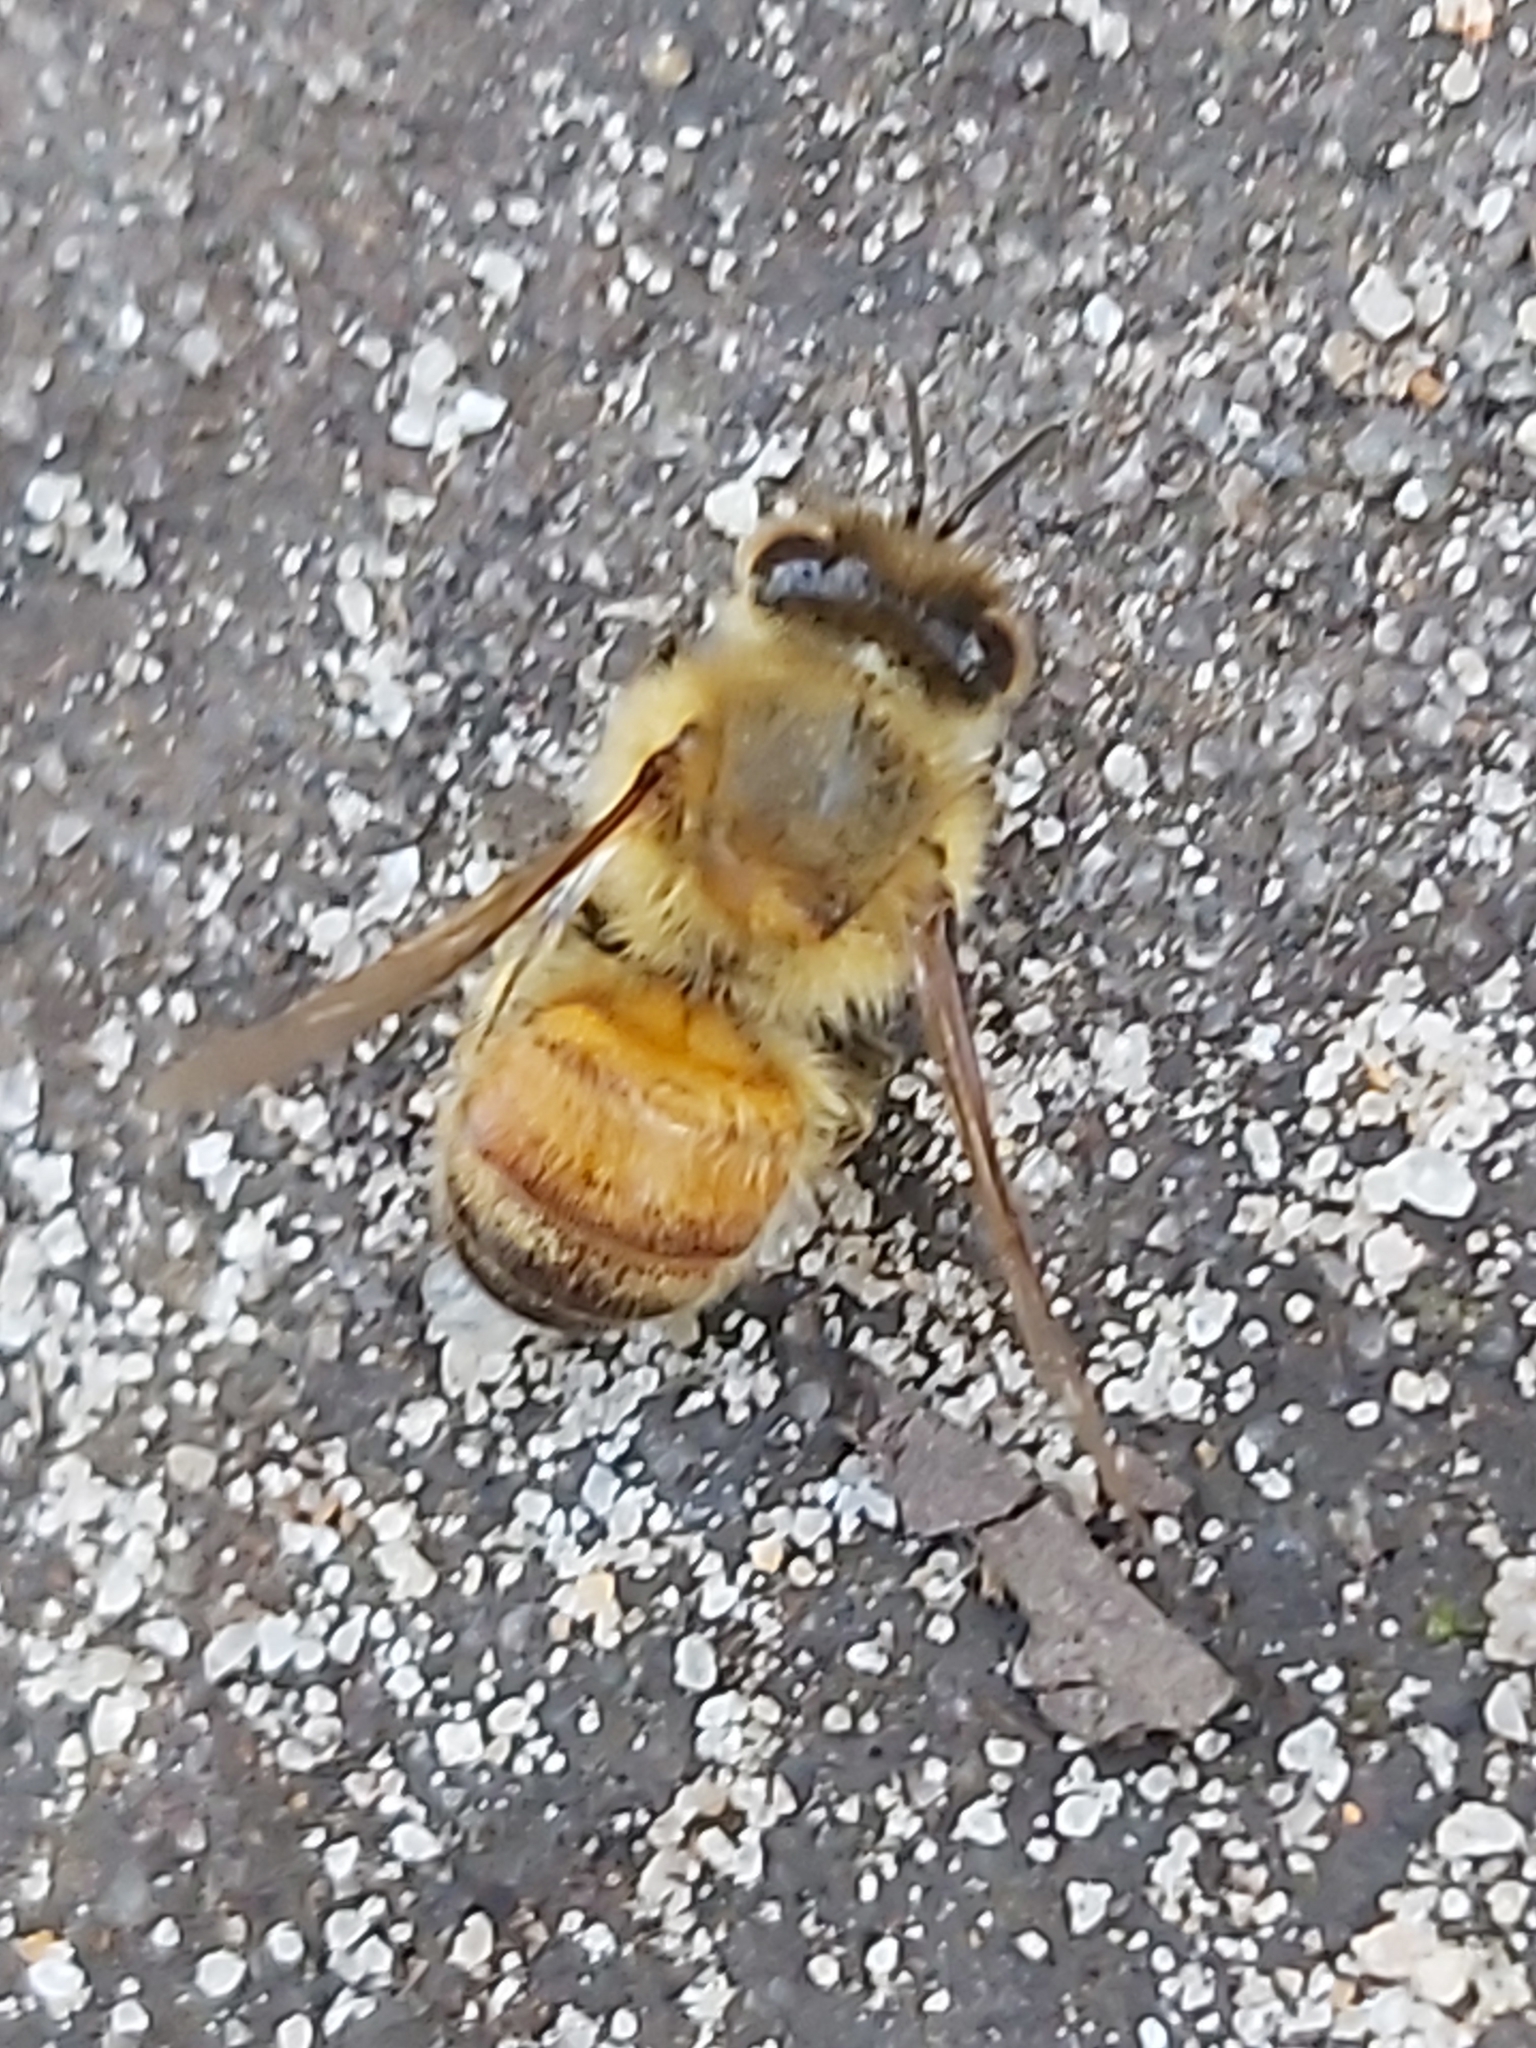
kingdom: Animalia
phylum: Arthropoda
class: Insecta
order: Hymenoptera
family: Apidae
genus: Apis
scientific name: Apis mellifera
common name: Honey bee
